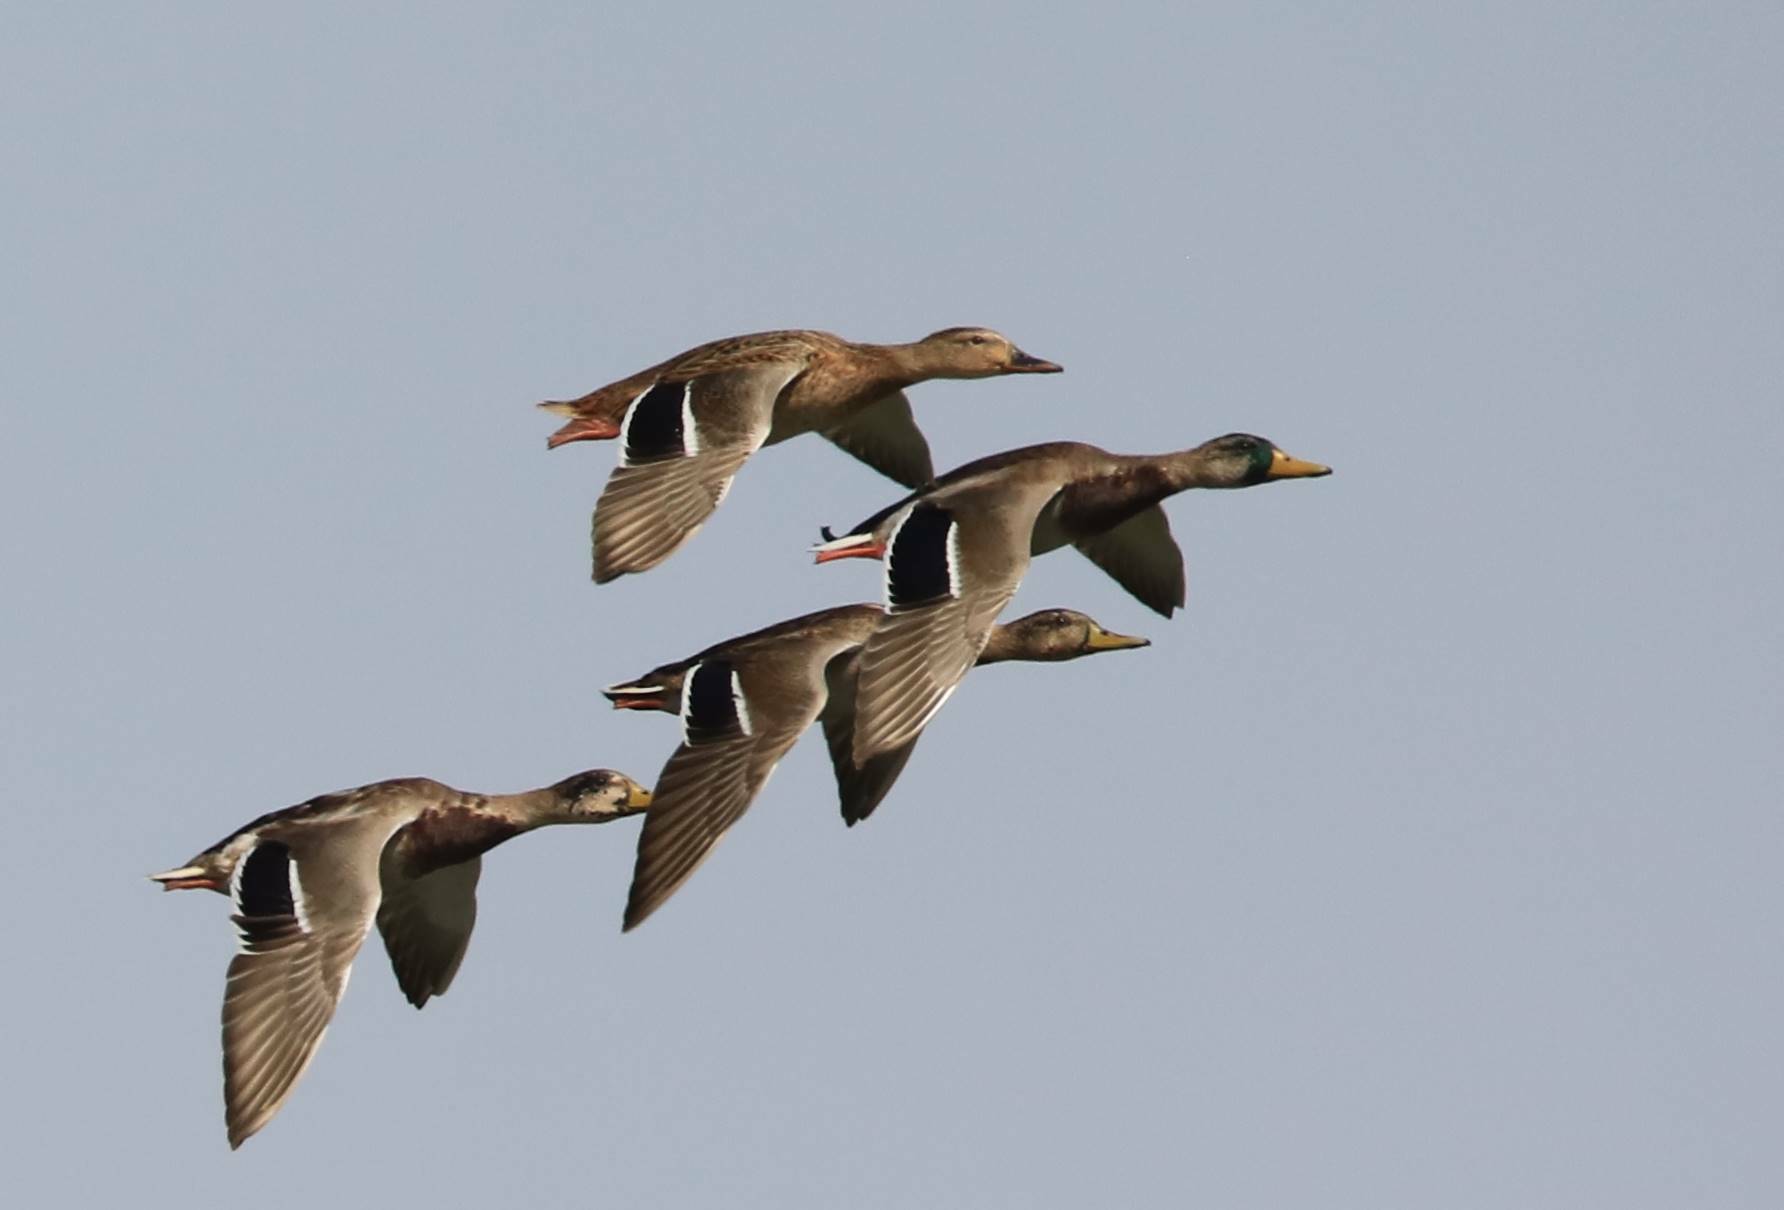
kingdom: Animalia
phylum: Chordata
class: Aves
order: Anseriformes
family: Anatidae
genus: Anas
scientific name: Anas platyrhynchos
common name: Mallard
